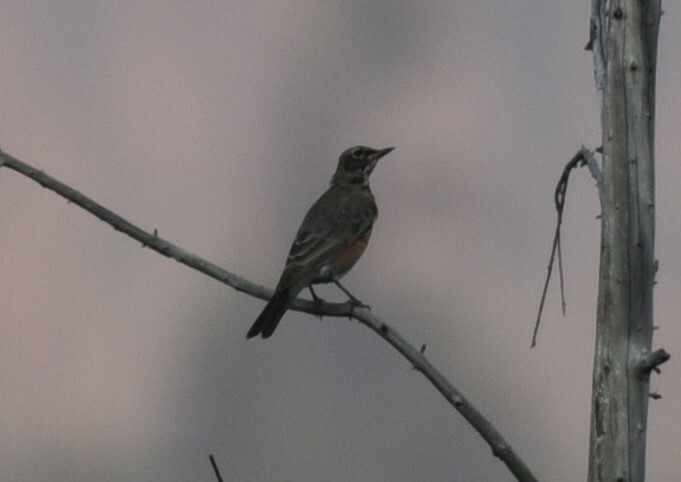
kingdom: Animalia
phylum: Chordata
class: Aves
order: Passeriformes
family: Turdidae
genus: Turdus
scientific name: Turdus migratorius
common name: American robin
